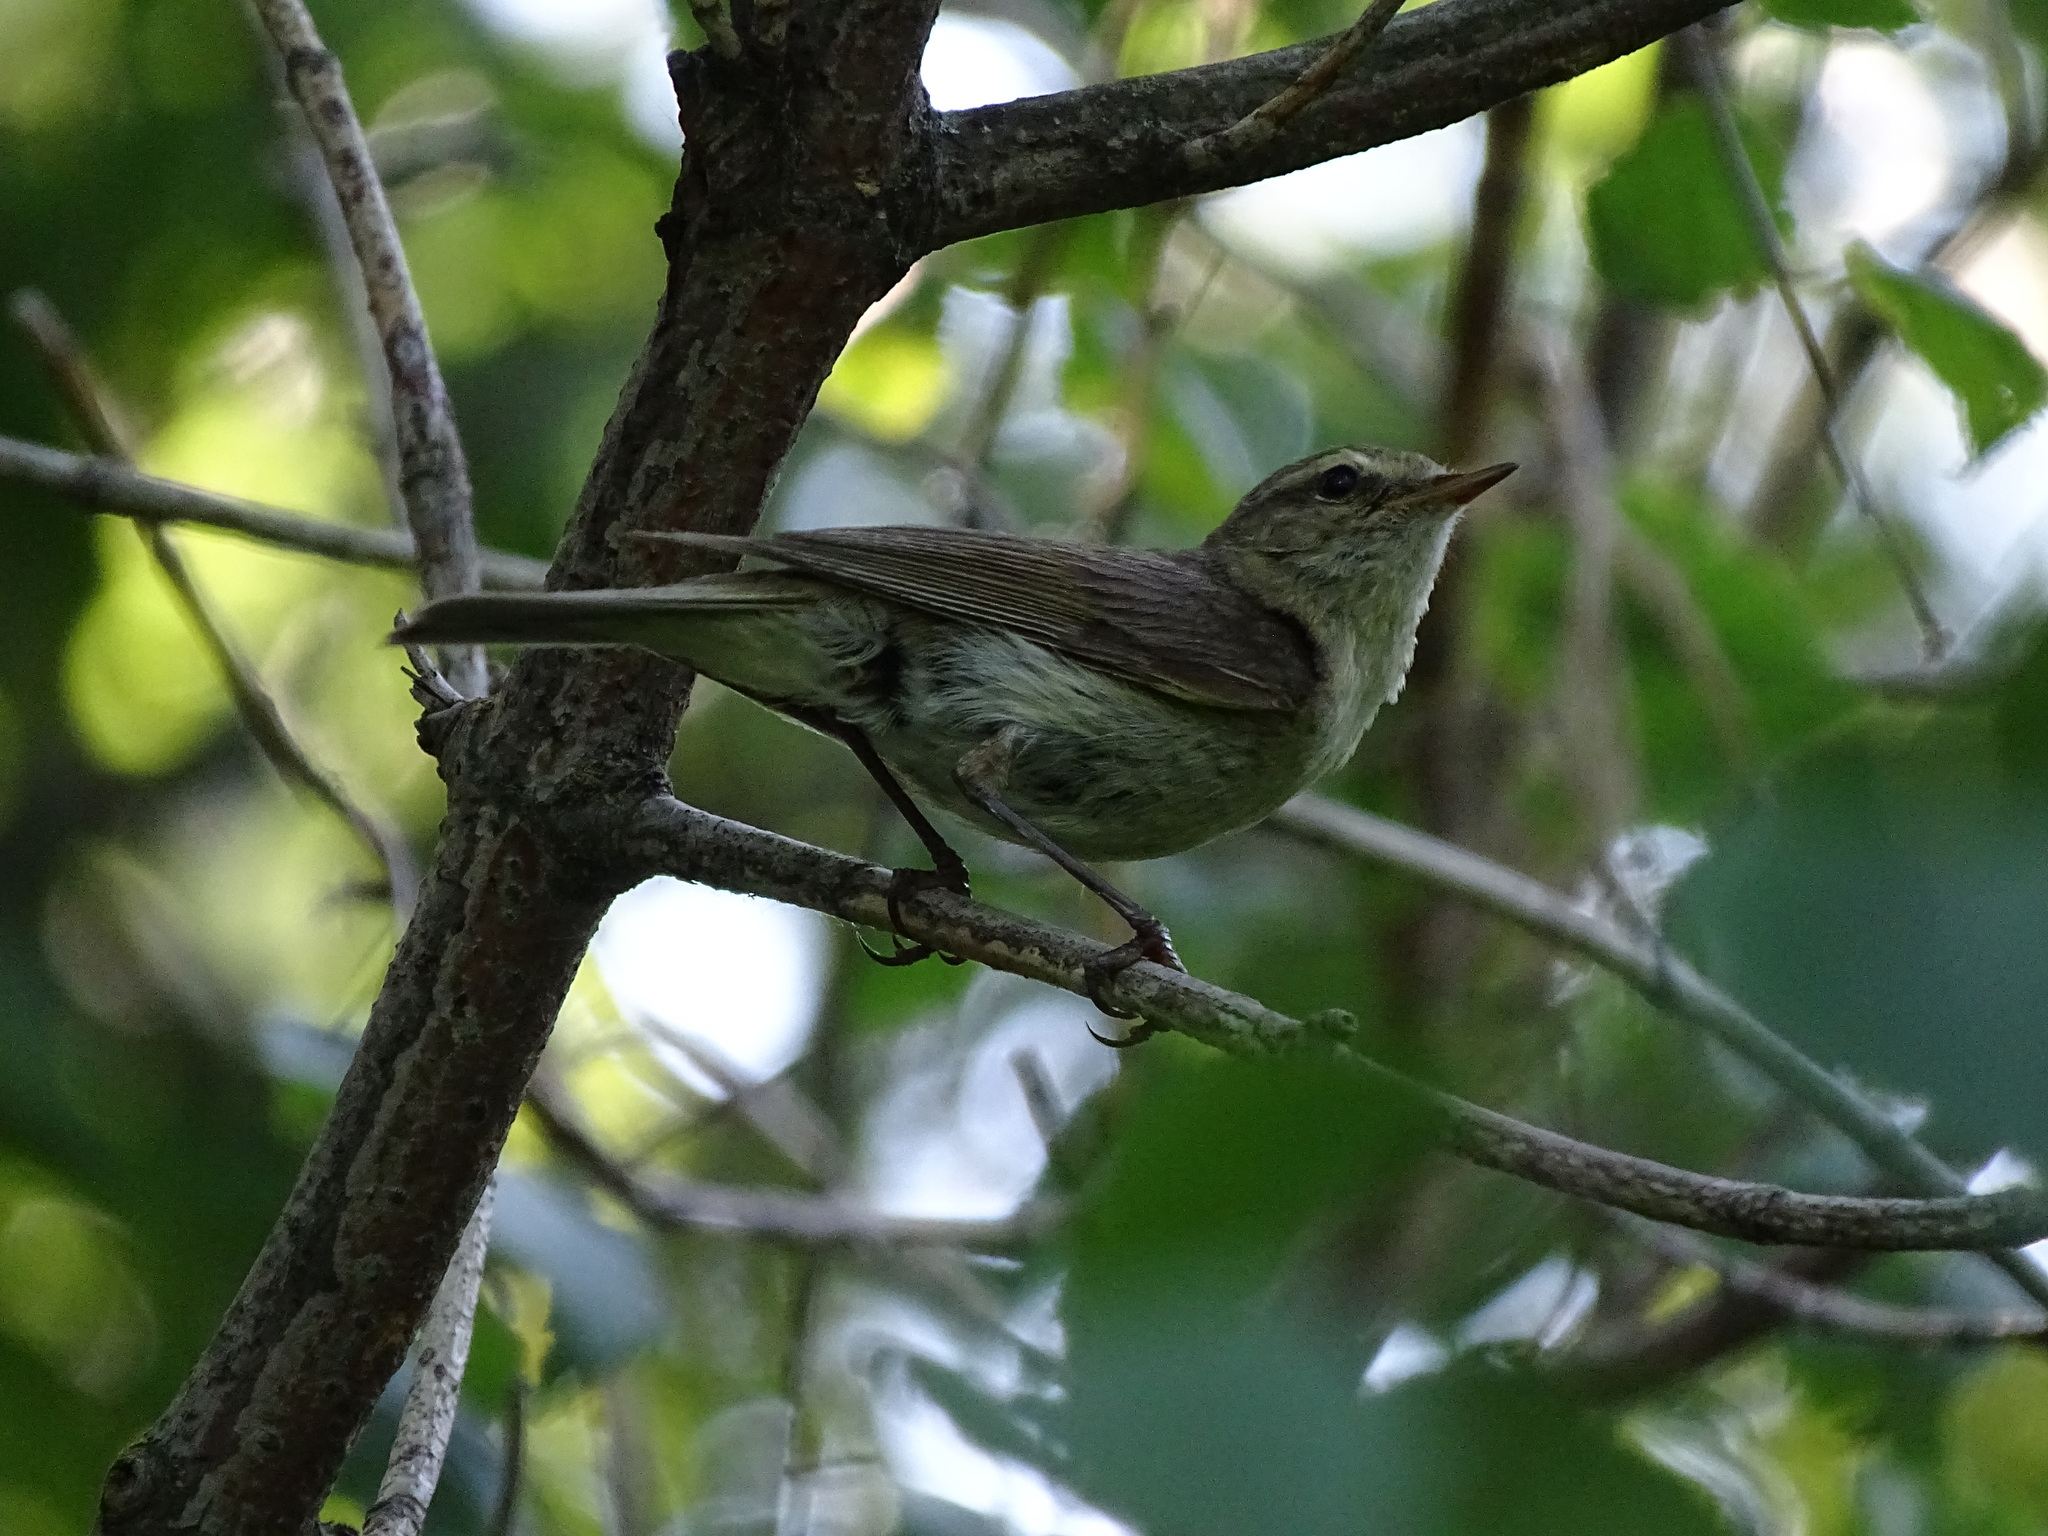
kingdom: Animalia
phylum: Chordata
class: Aves
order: Passeriformes
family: Phylloscopidae
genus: Phylloscopus
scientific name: Phylloscopus collybita
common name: Common chiffchaff
